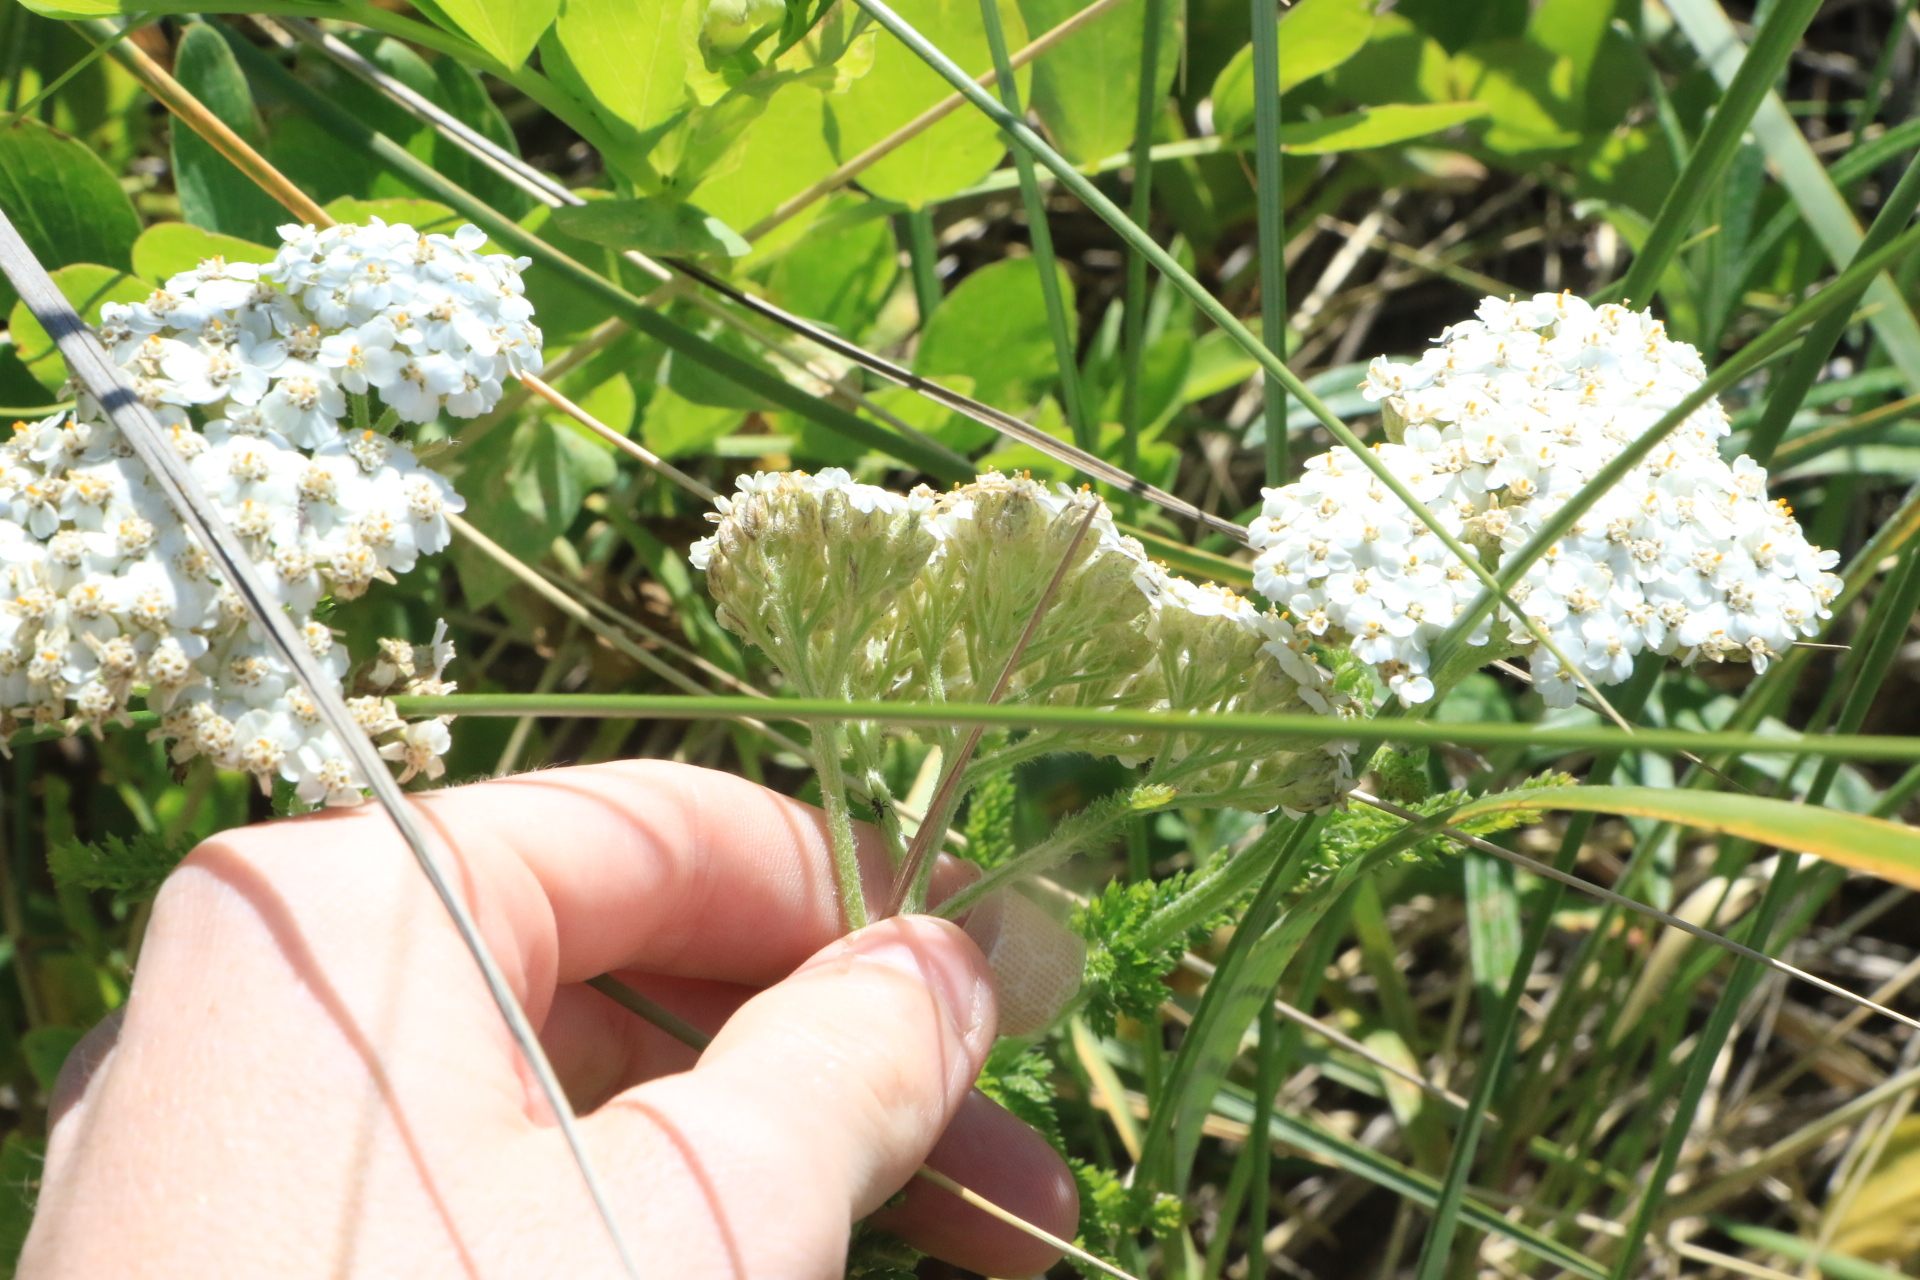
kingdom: Plantae
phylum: Tracheophyta
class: Magnoliopsida
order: Asterales
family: Asteraceae
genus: Achillea
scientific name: Achillea millefolium
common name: Yarrow
